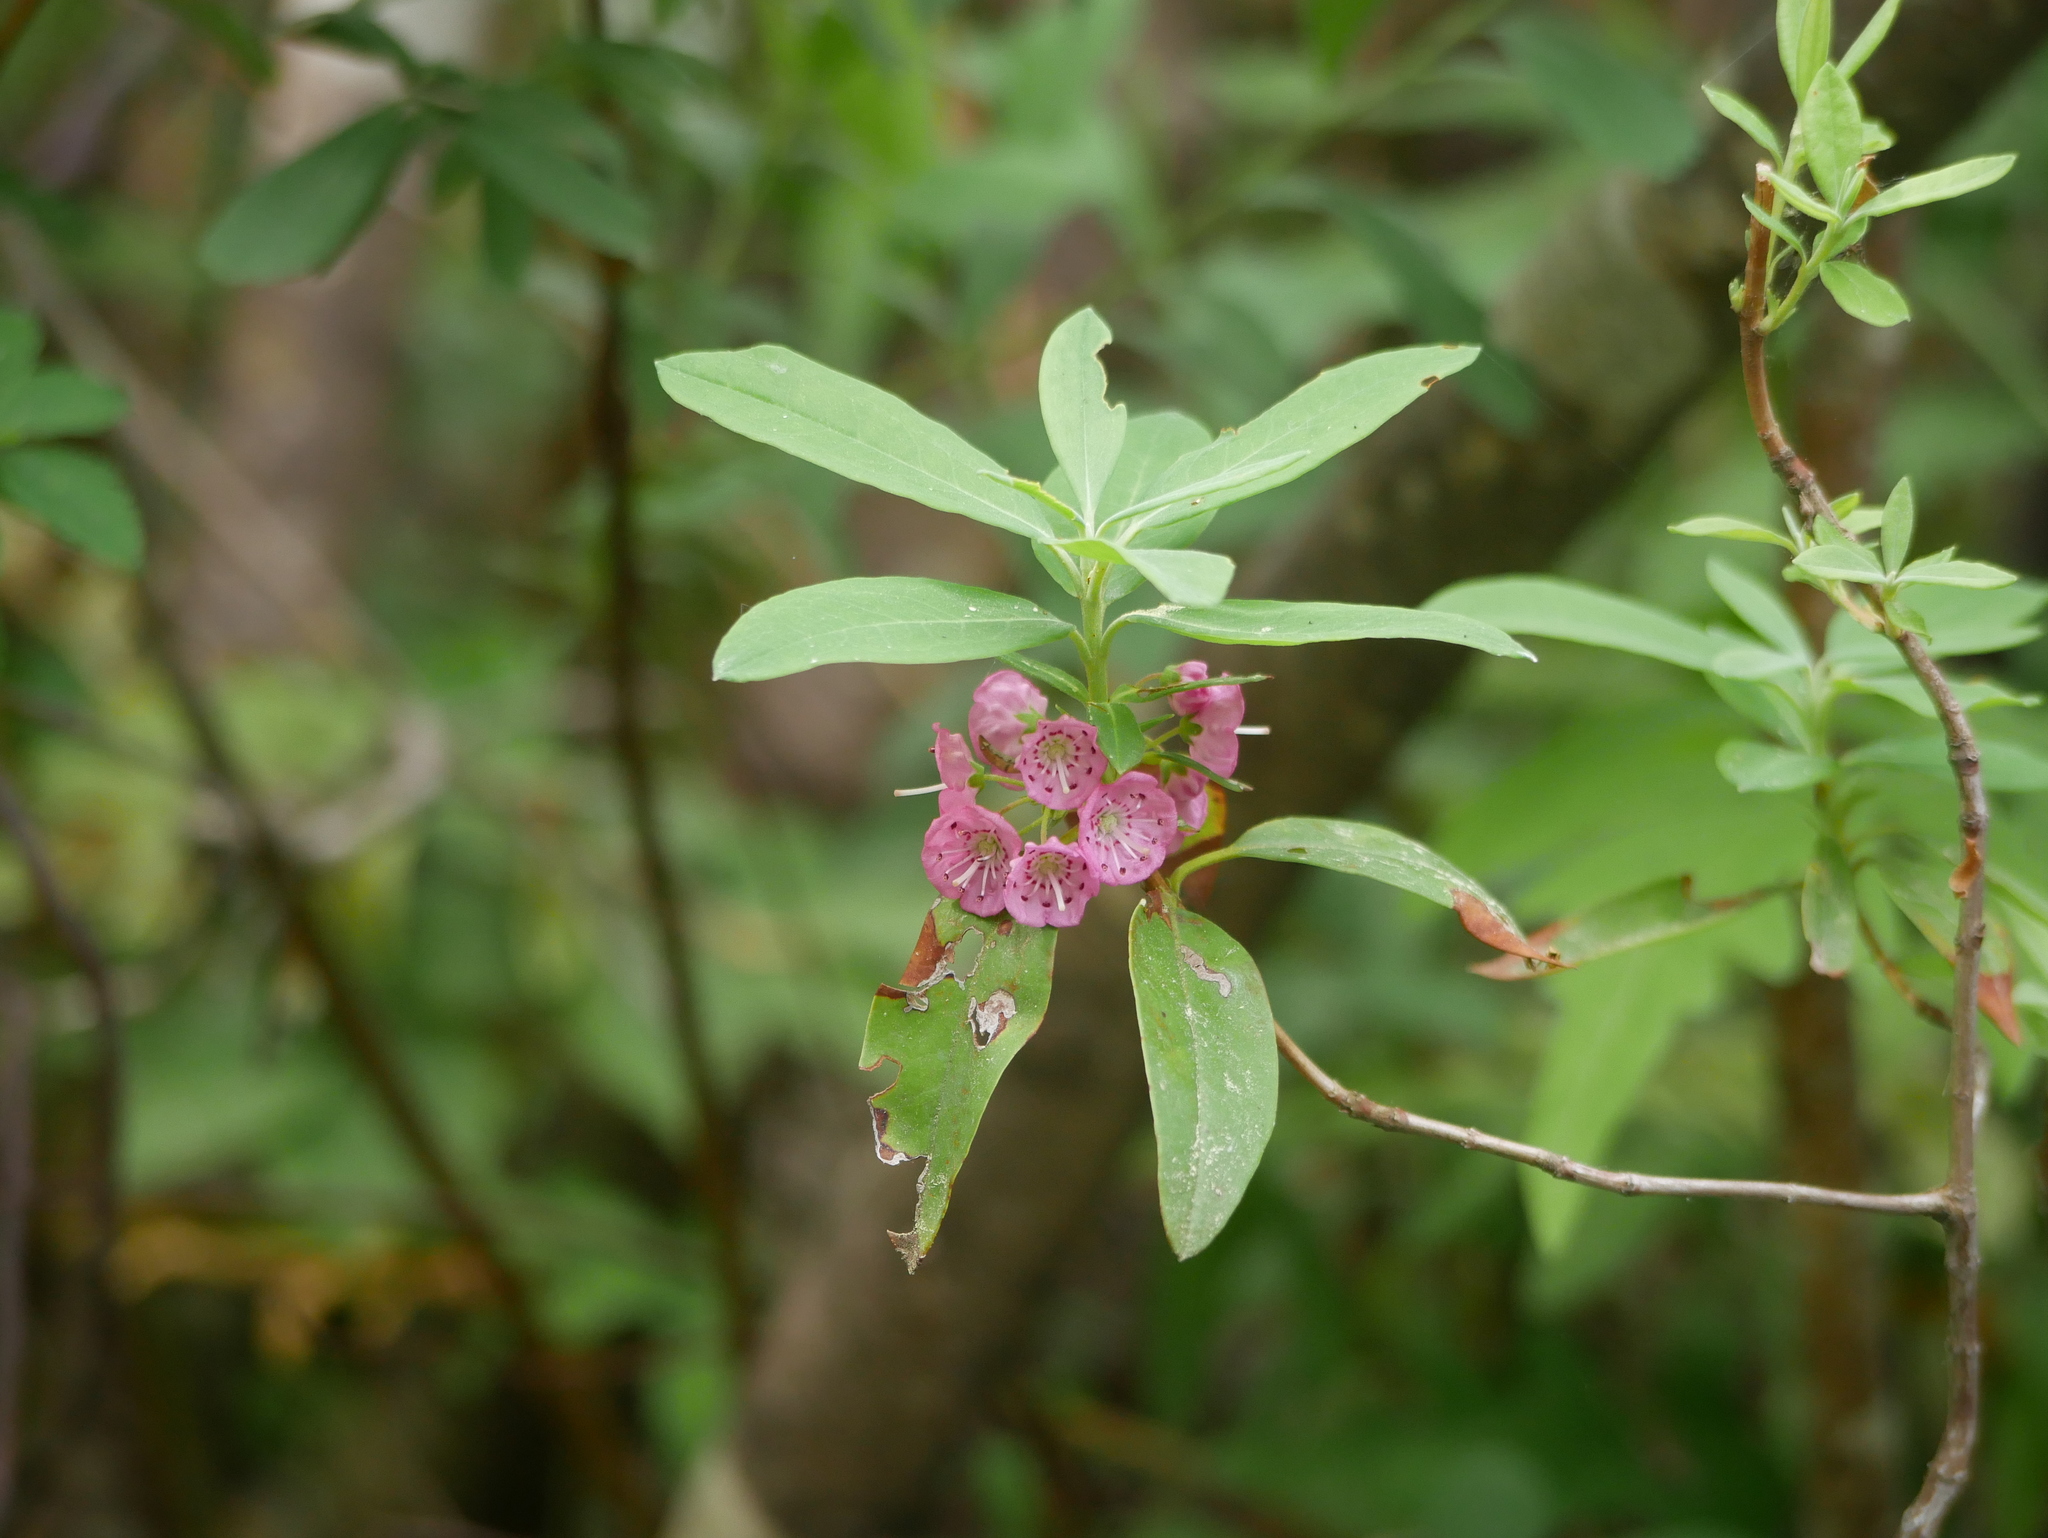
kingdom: Plantae
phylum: Tracheophyta
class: Magnoliopsida
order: Ericales
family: Ericaceae
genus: Kalmia
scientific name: Kalmia angustifolia
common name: Sheep-laurel
